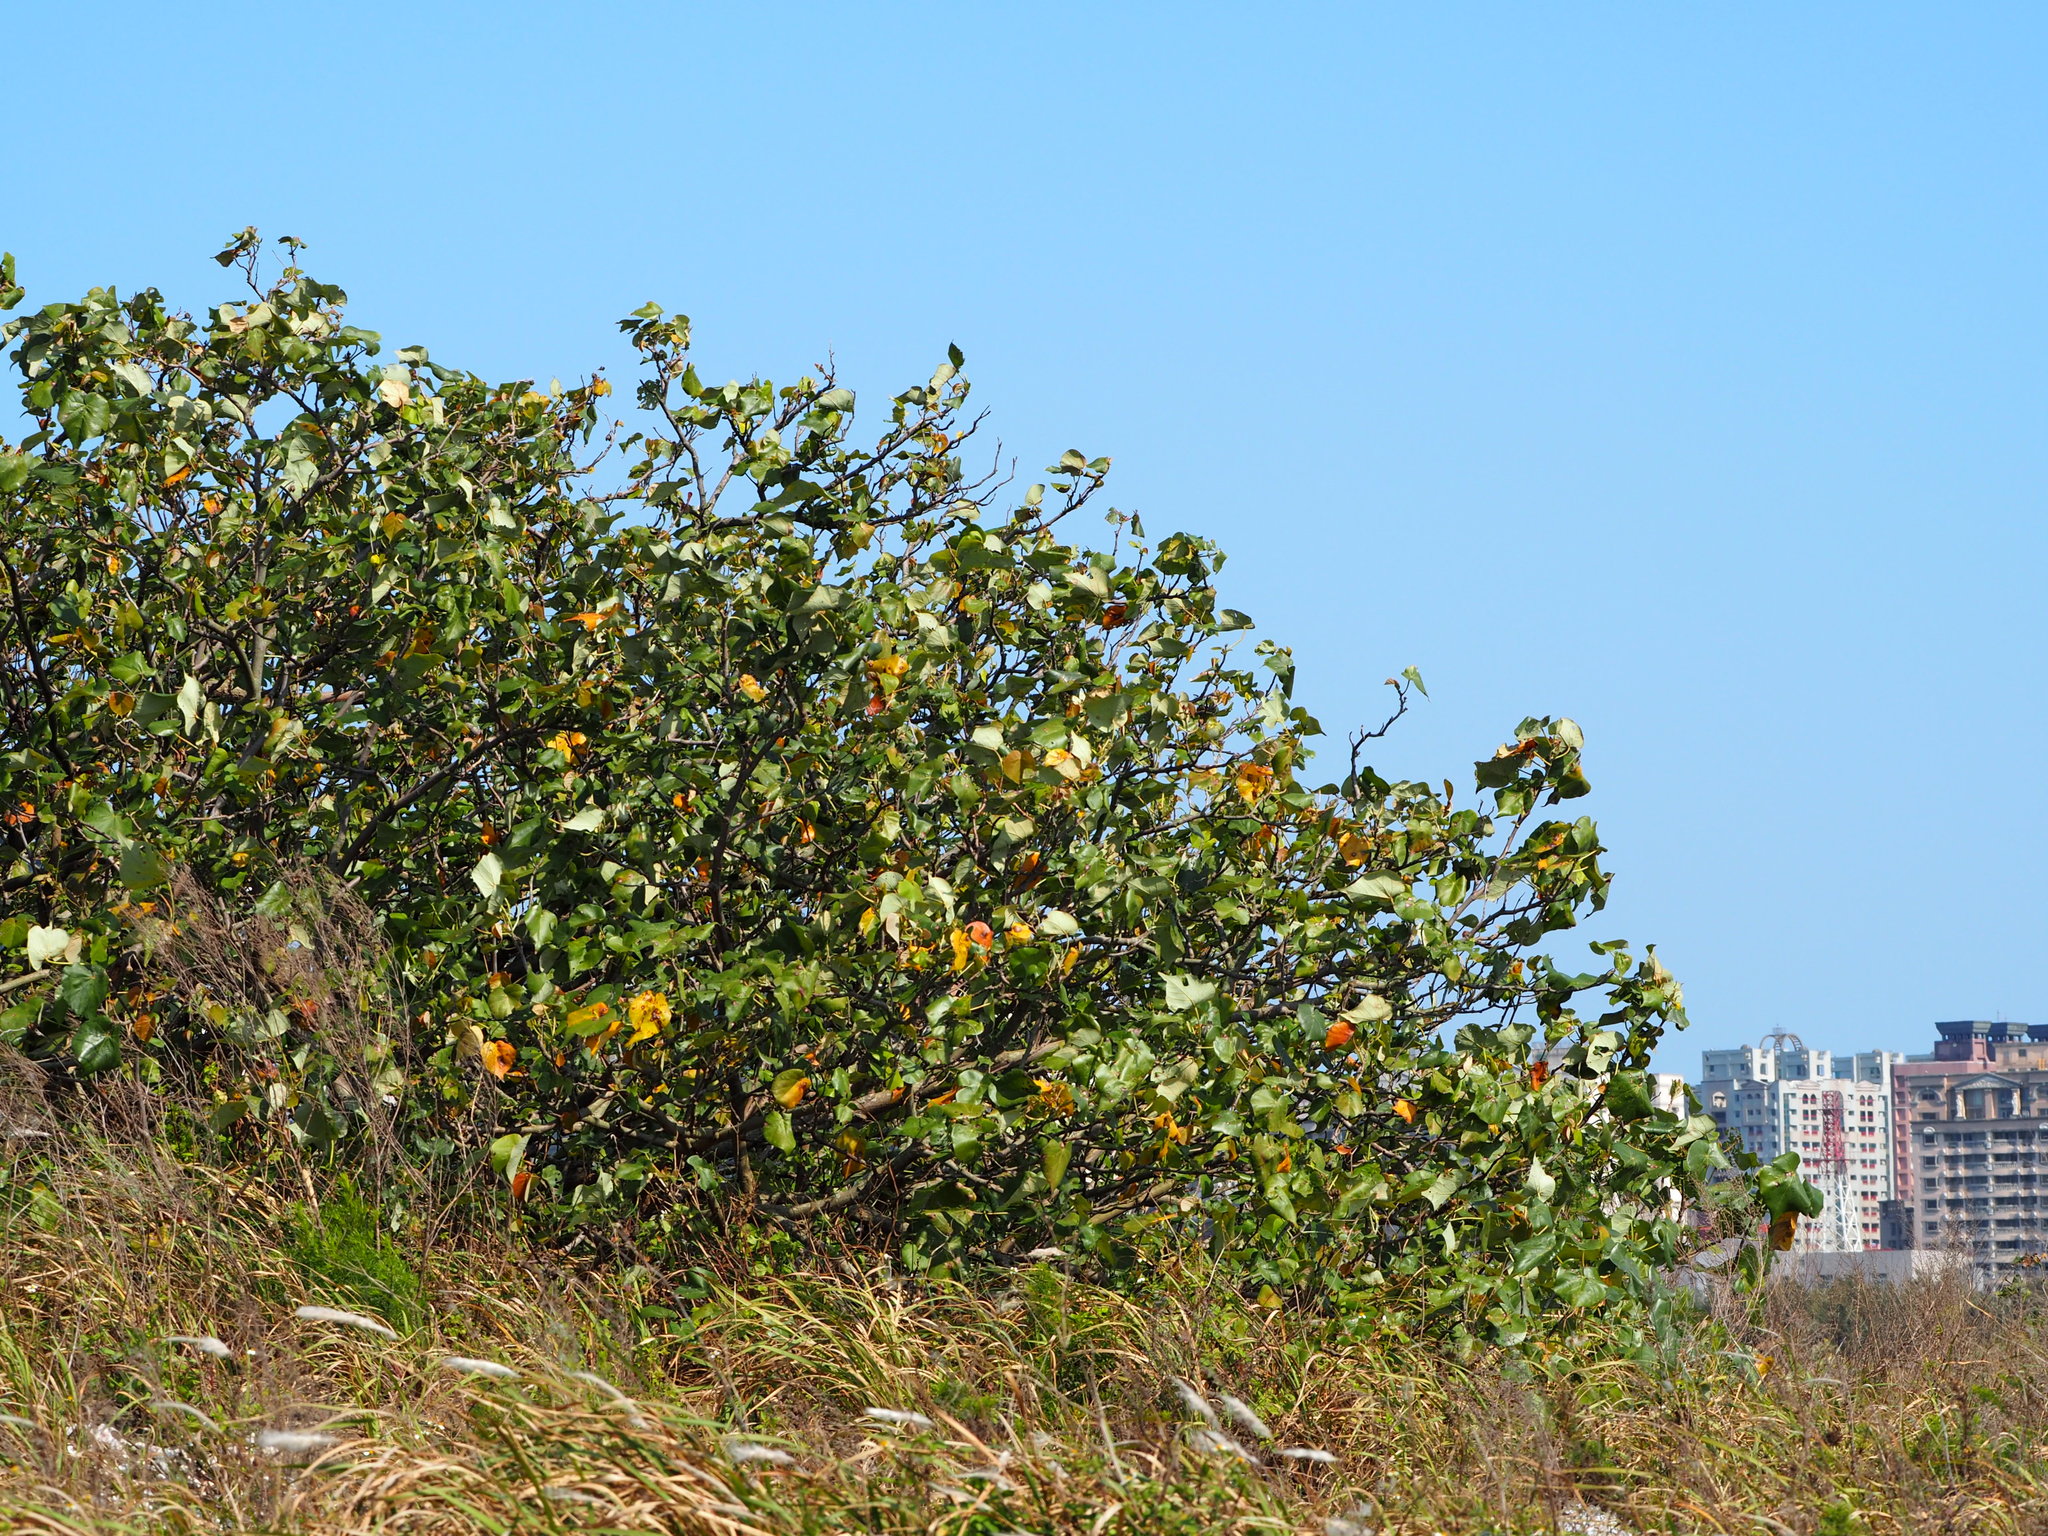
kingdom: Plantae
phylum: Tracheophyta
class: Magnoliopsida
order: Malvales
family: Malvaceae
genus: Talipariti
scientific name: Talipariti tiliaceum
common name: Sea hibiscus
